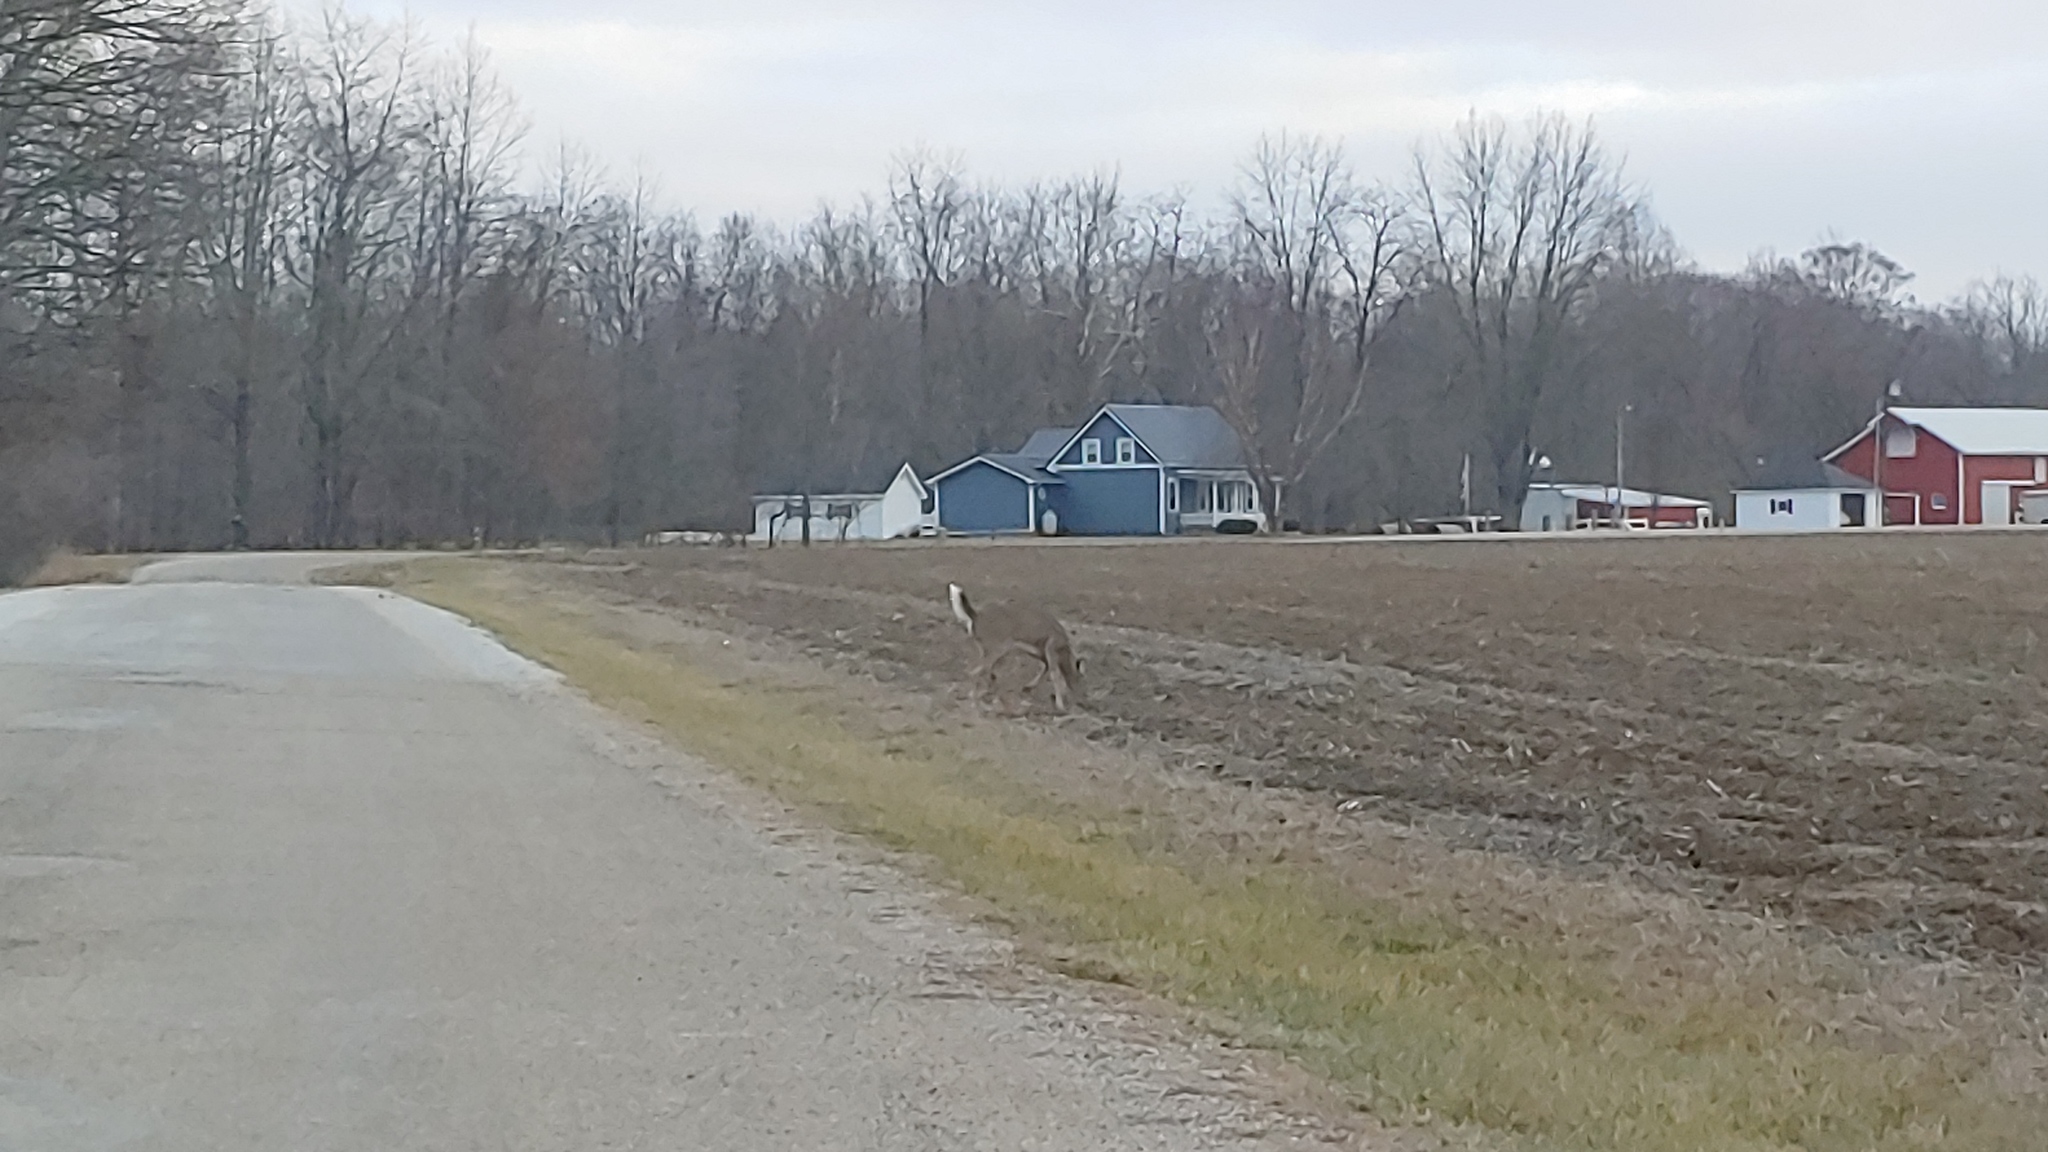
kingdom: Animalia
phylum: Chordata
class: Mammalia
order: Artiodactyla
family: Cervidae
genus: Odocoileus
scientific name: Odocoileus virginianus
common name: White-tailed deer
